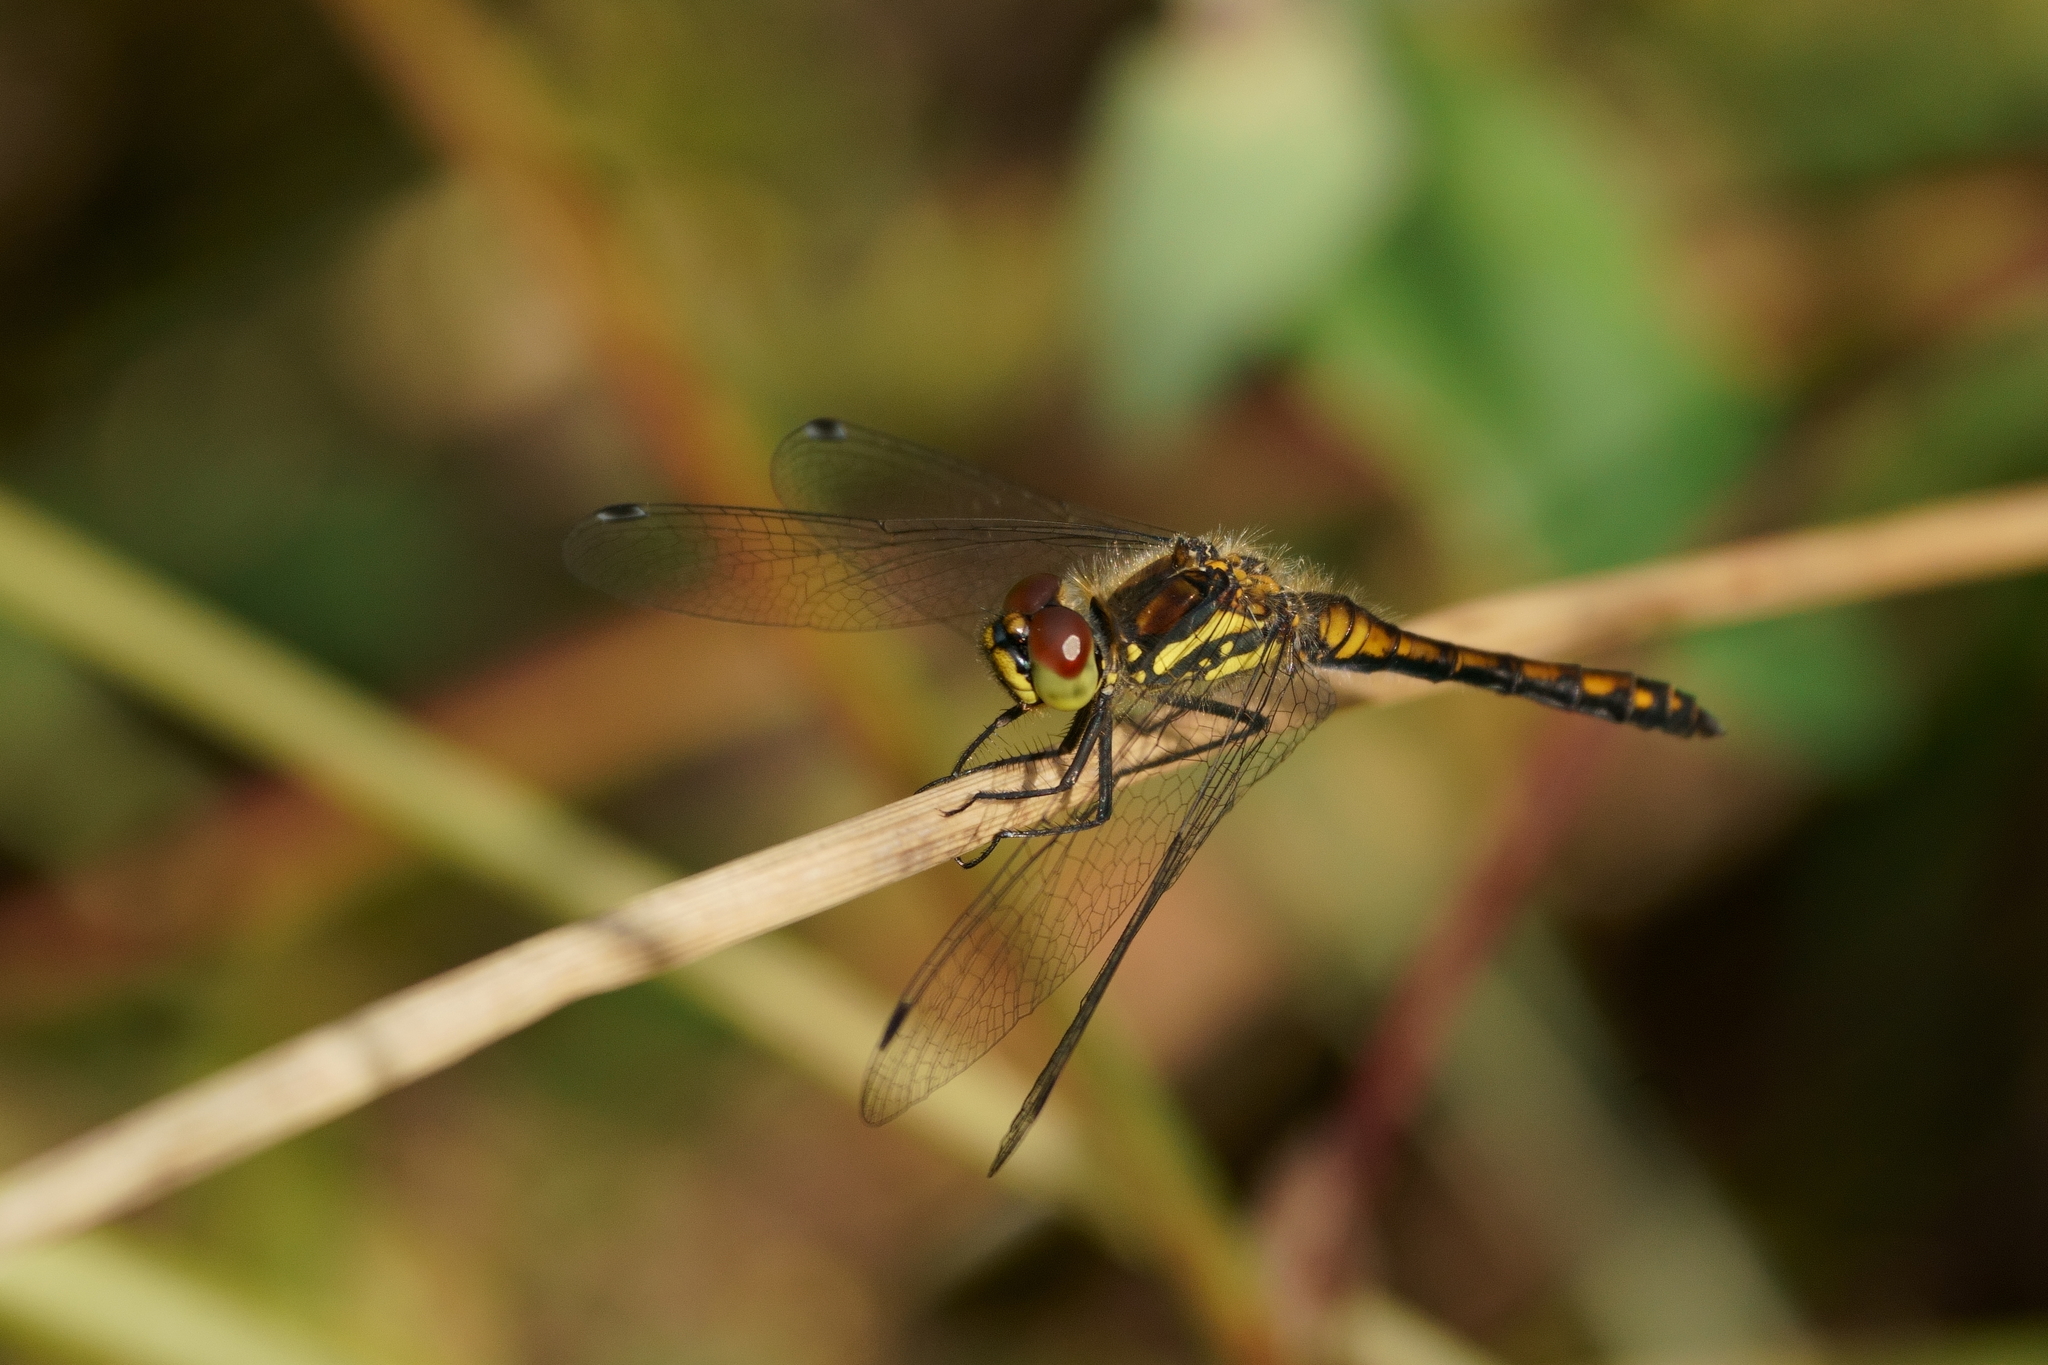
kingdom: Animalia
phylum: Arthropoda
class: Insecta
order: Odonata
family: Libellulidae
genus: Sympetrum
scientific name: Sympetrum danae
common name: Black darter
